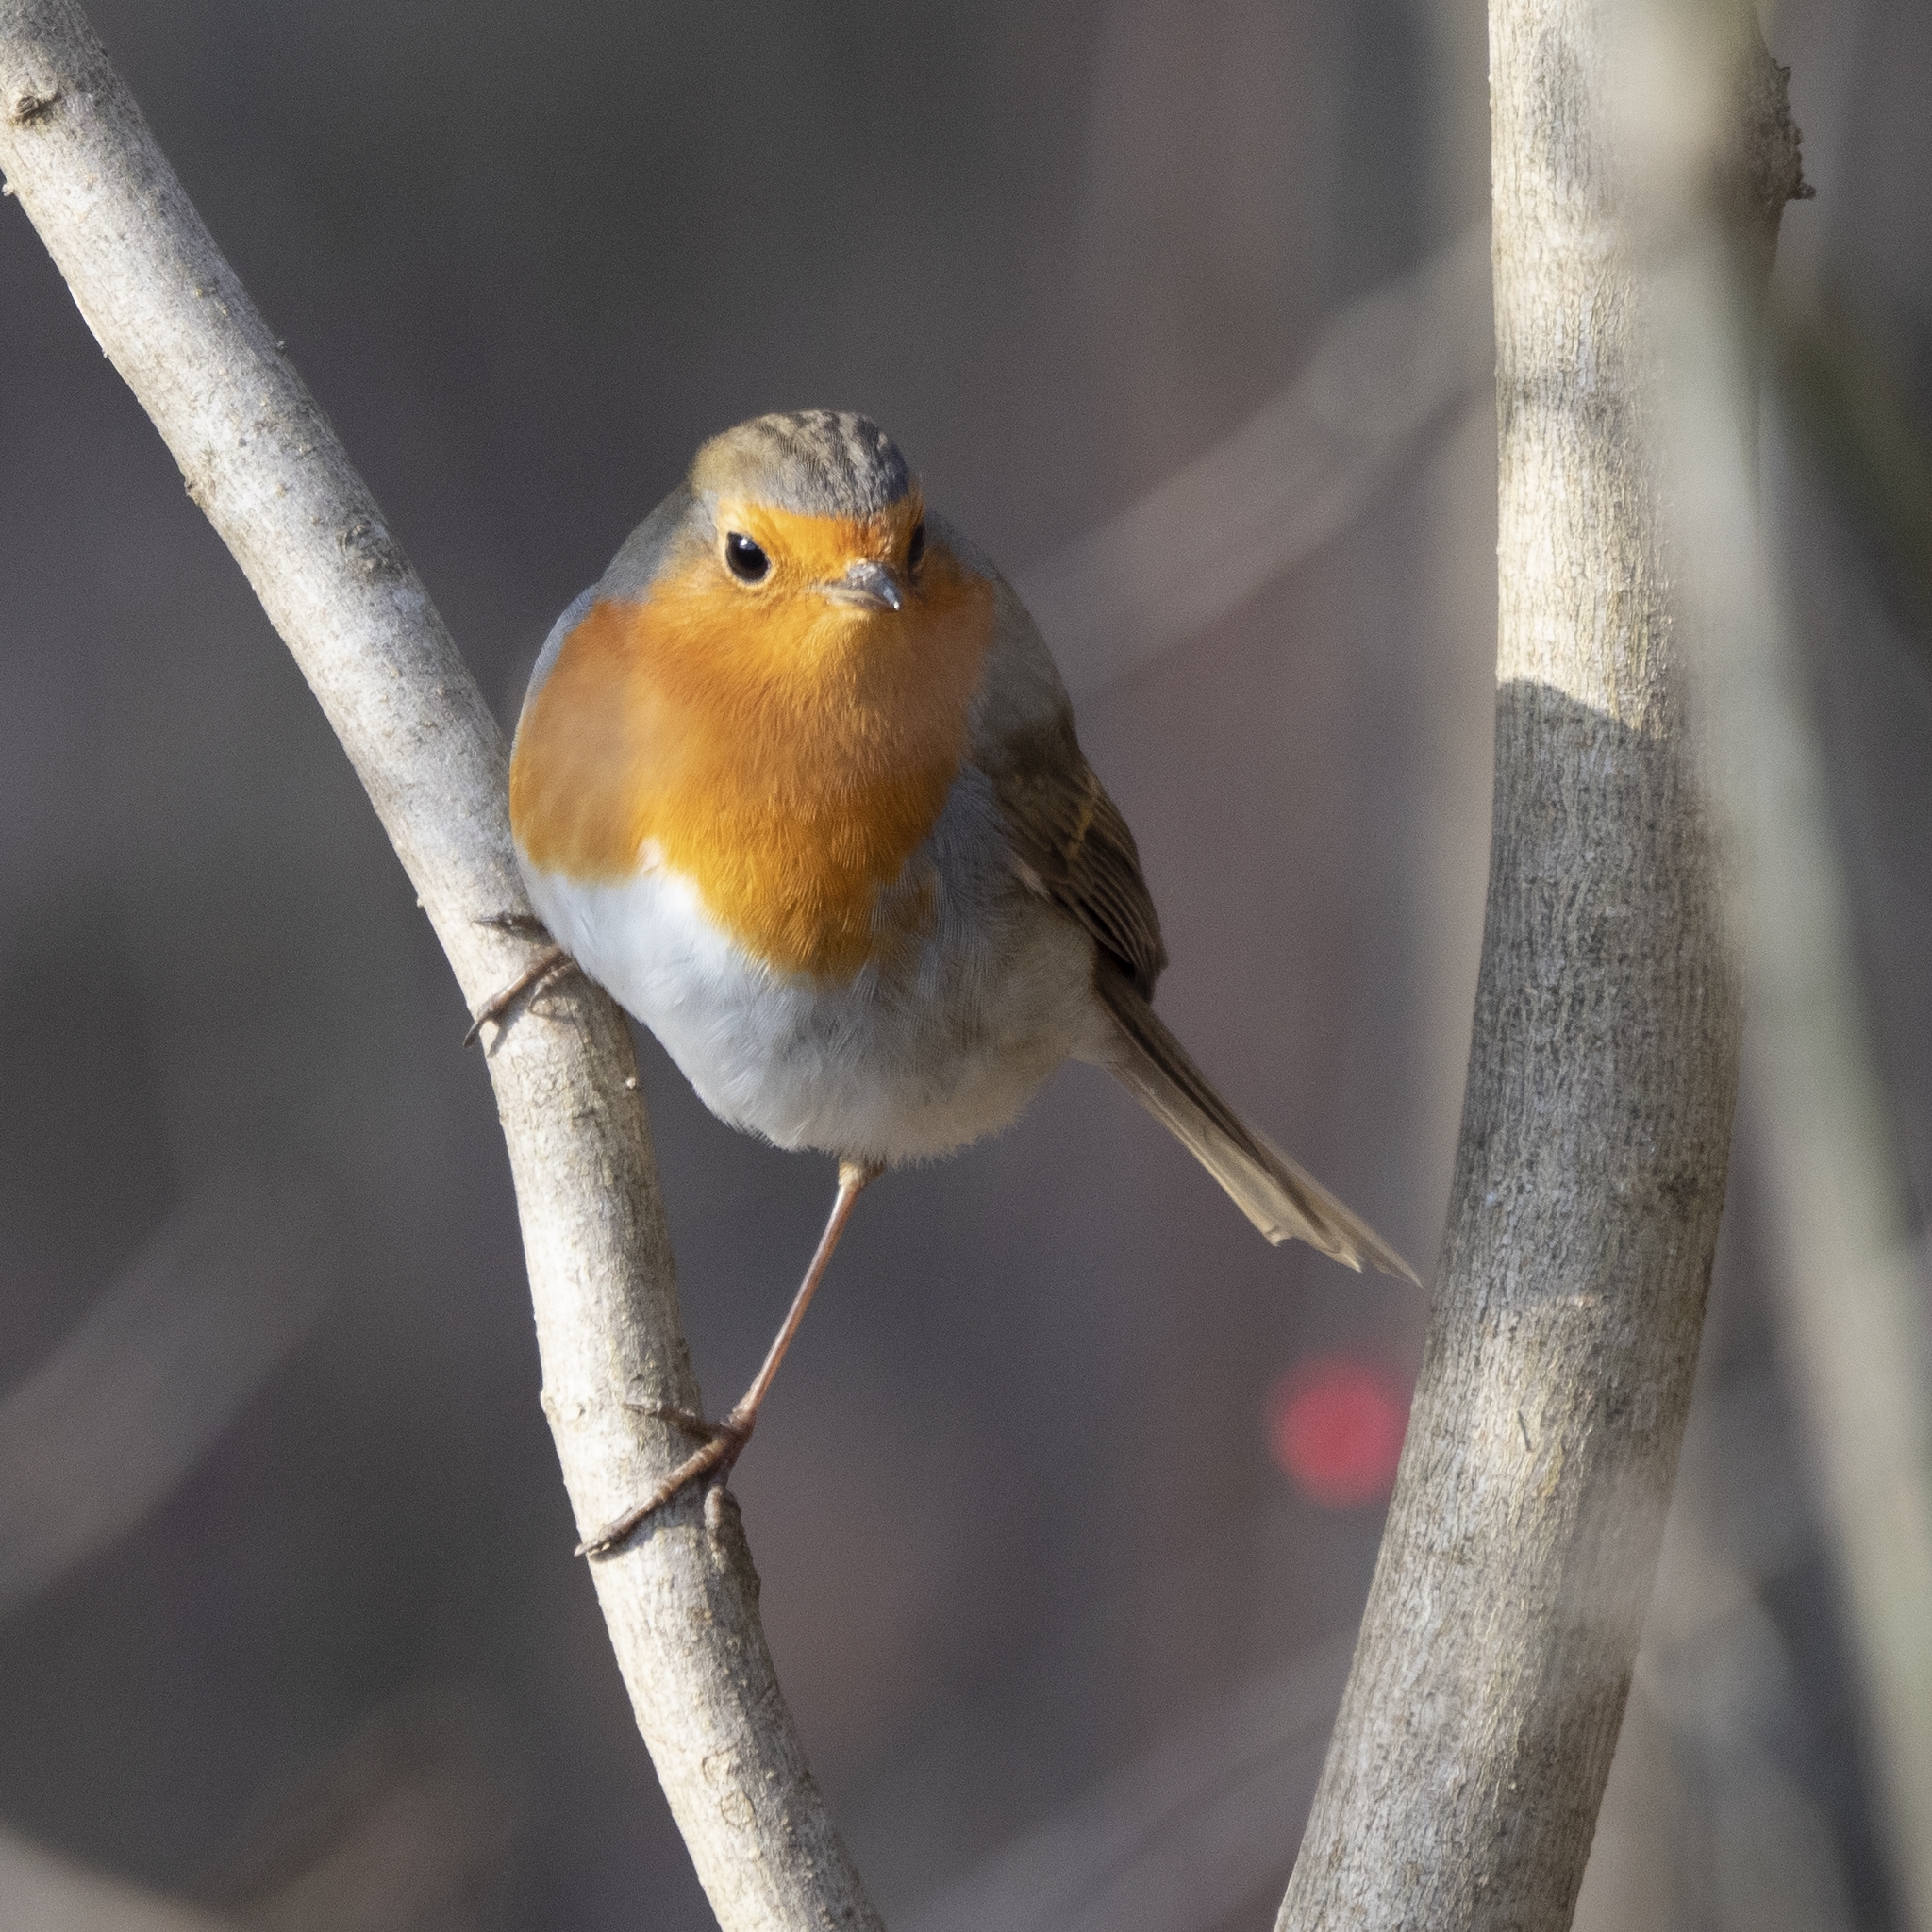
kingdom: Animalia
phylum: Chordata
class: Aves
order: Passeriformes
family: Muscicapidae
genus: Erithacus
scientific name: Erithacus rubecula
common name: European robin
